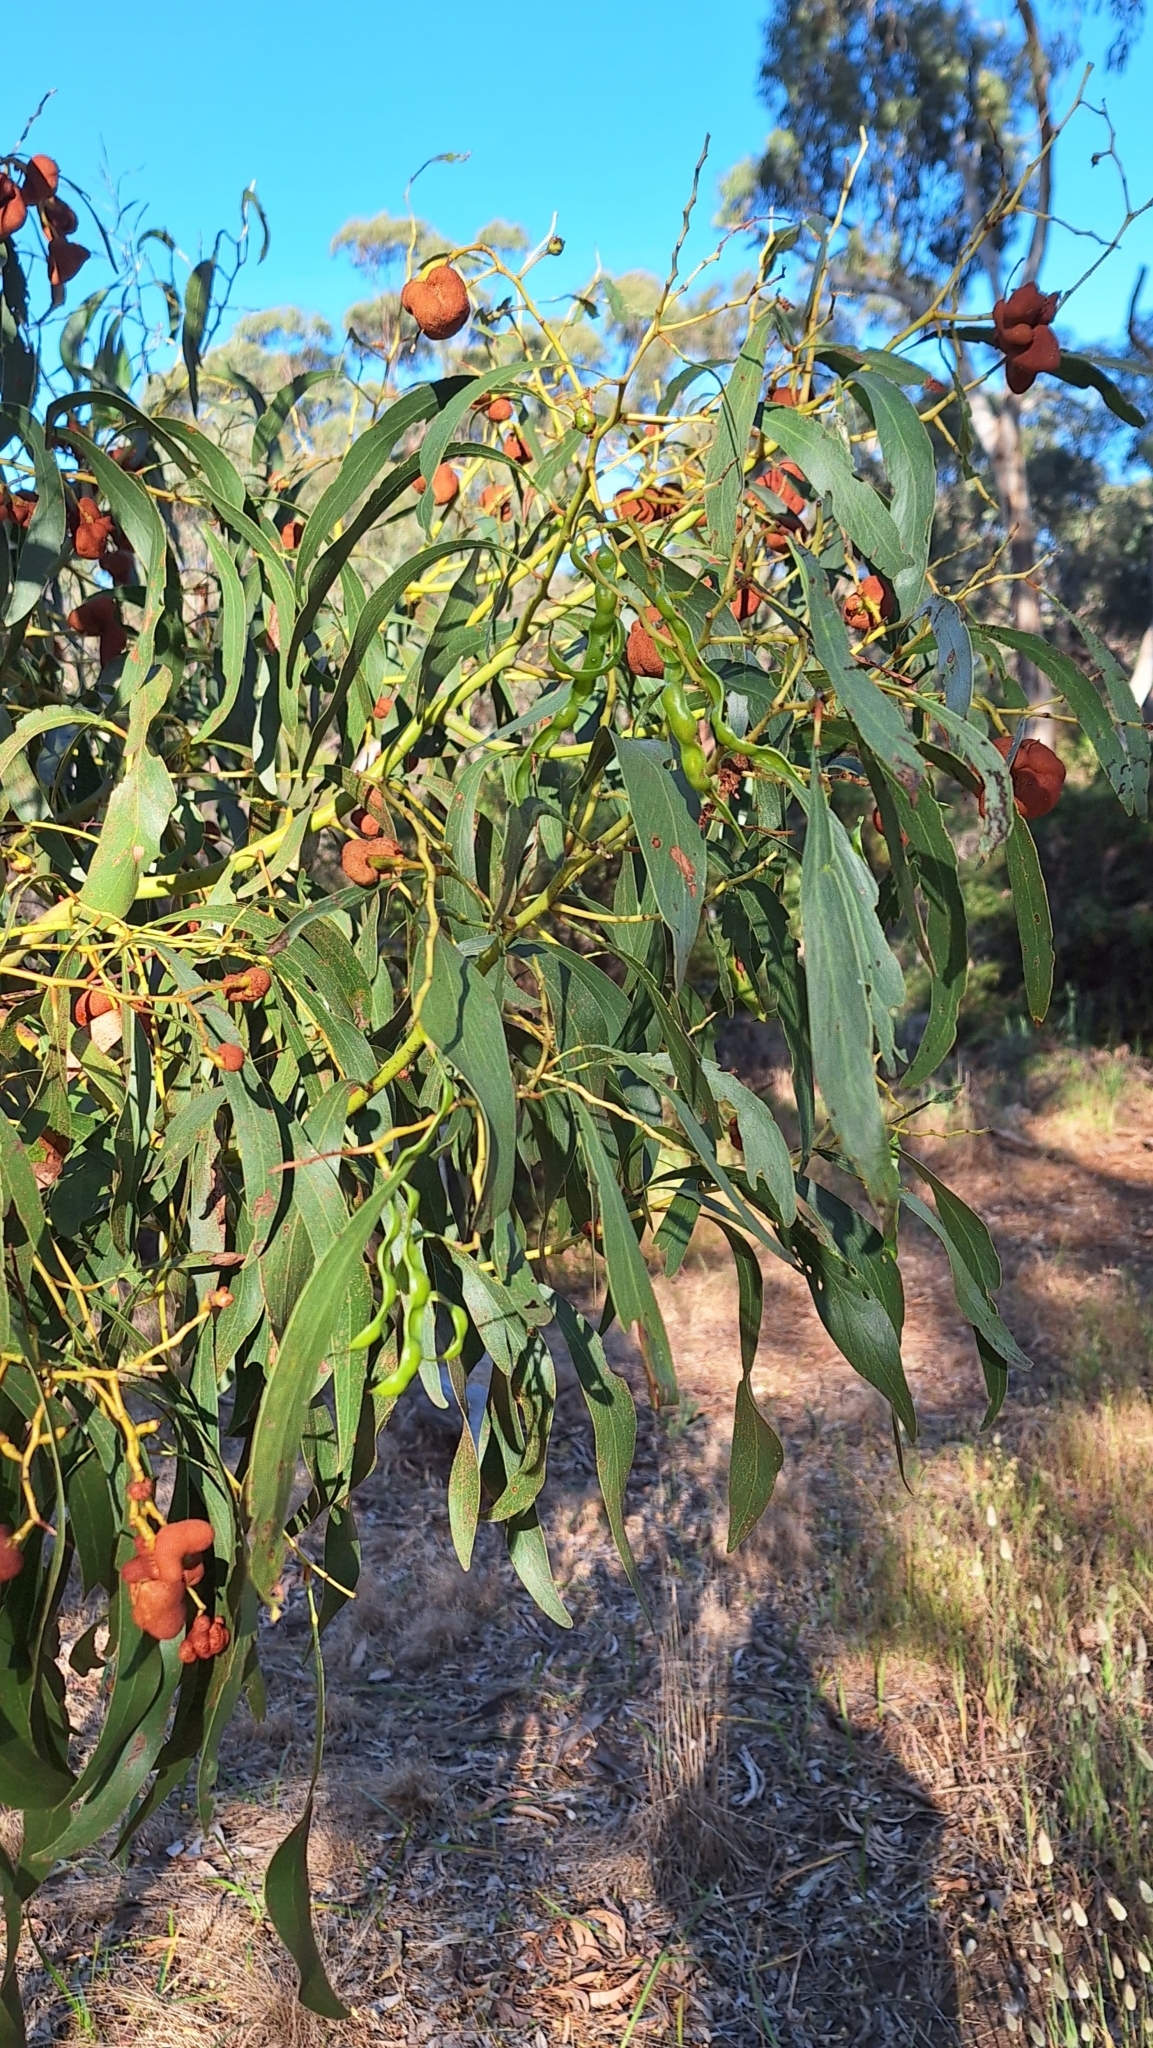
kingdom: Plantae
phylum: Tracheophyta
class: Magnoliopsida
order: Fabales
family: Fabaceae
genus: Acacia
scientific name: Acacia pycnantha
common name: Golden wattle
